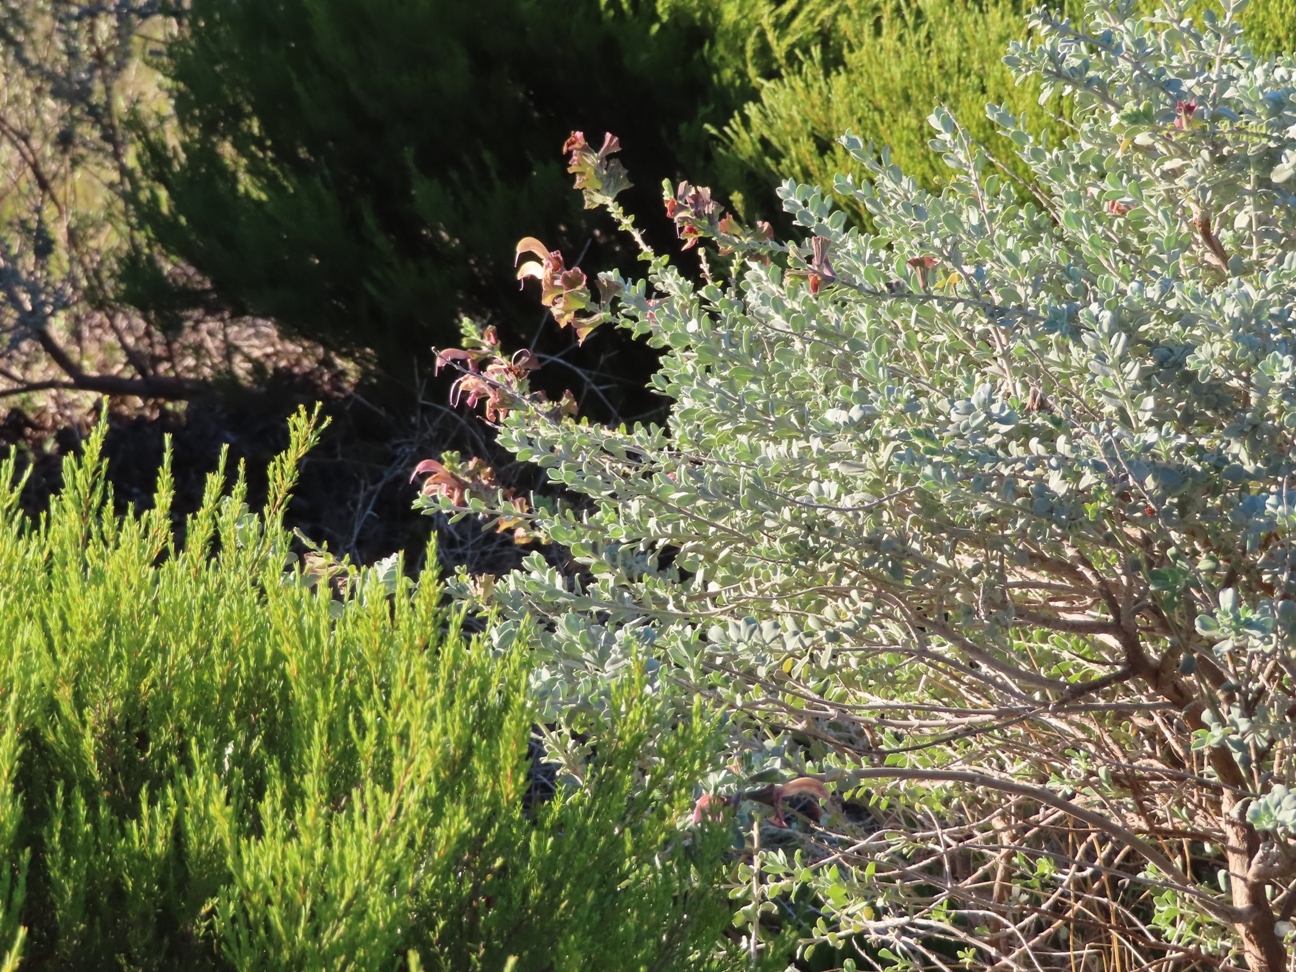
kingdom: Plantae
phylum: Tracheophyta
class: Magnoliopsida
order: Lamiales
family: Lamiaceae
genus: Salvia
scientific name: Salvia lanceolata
